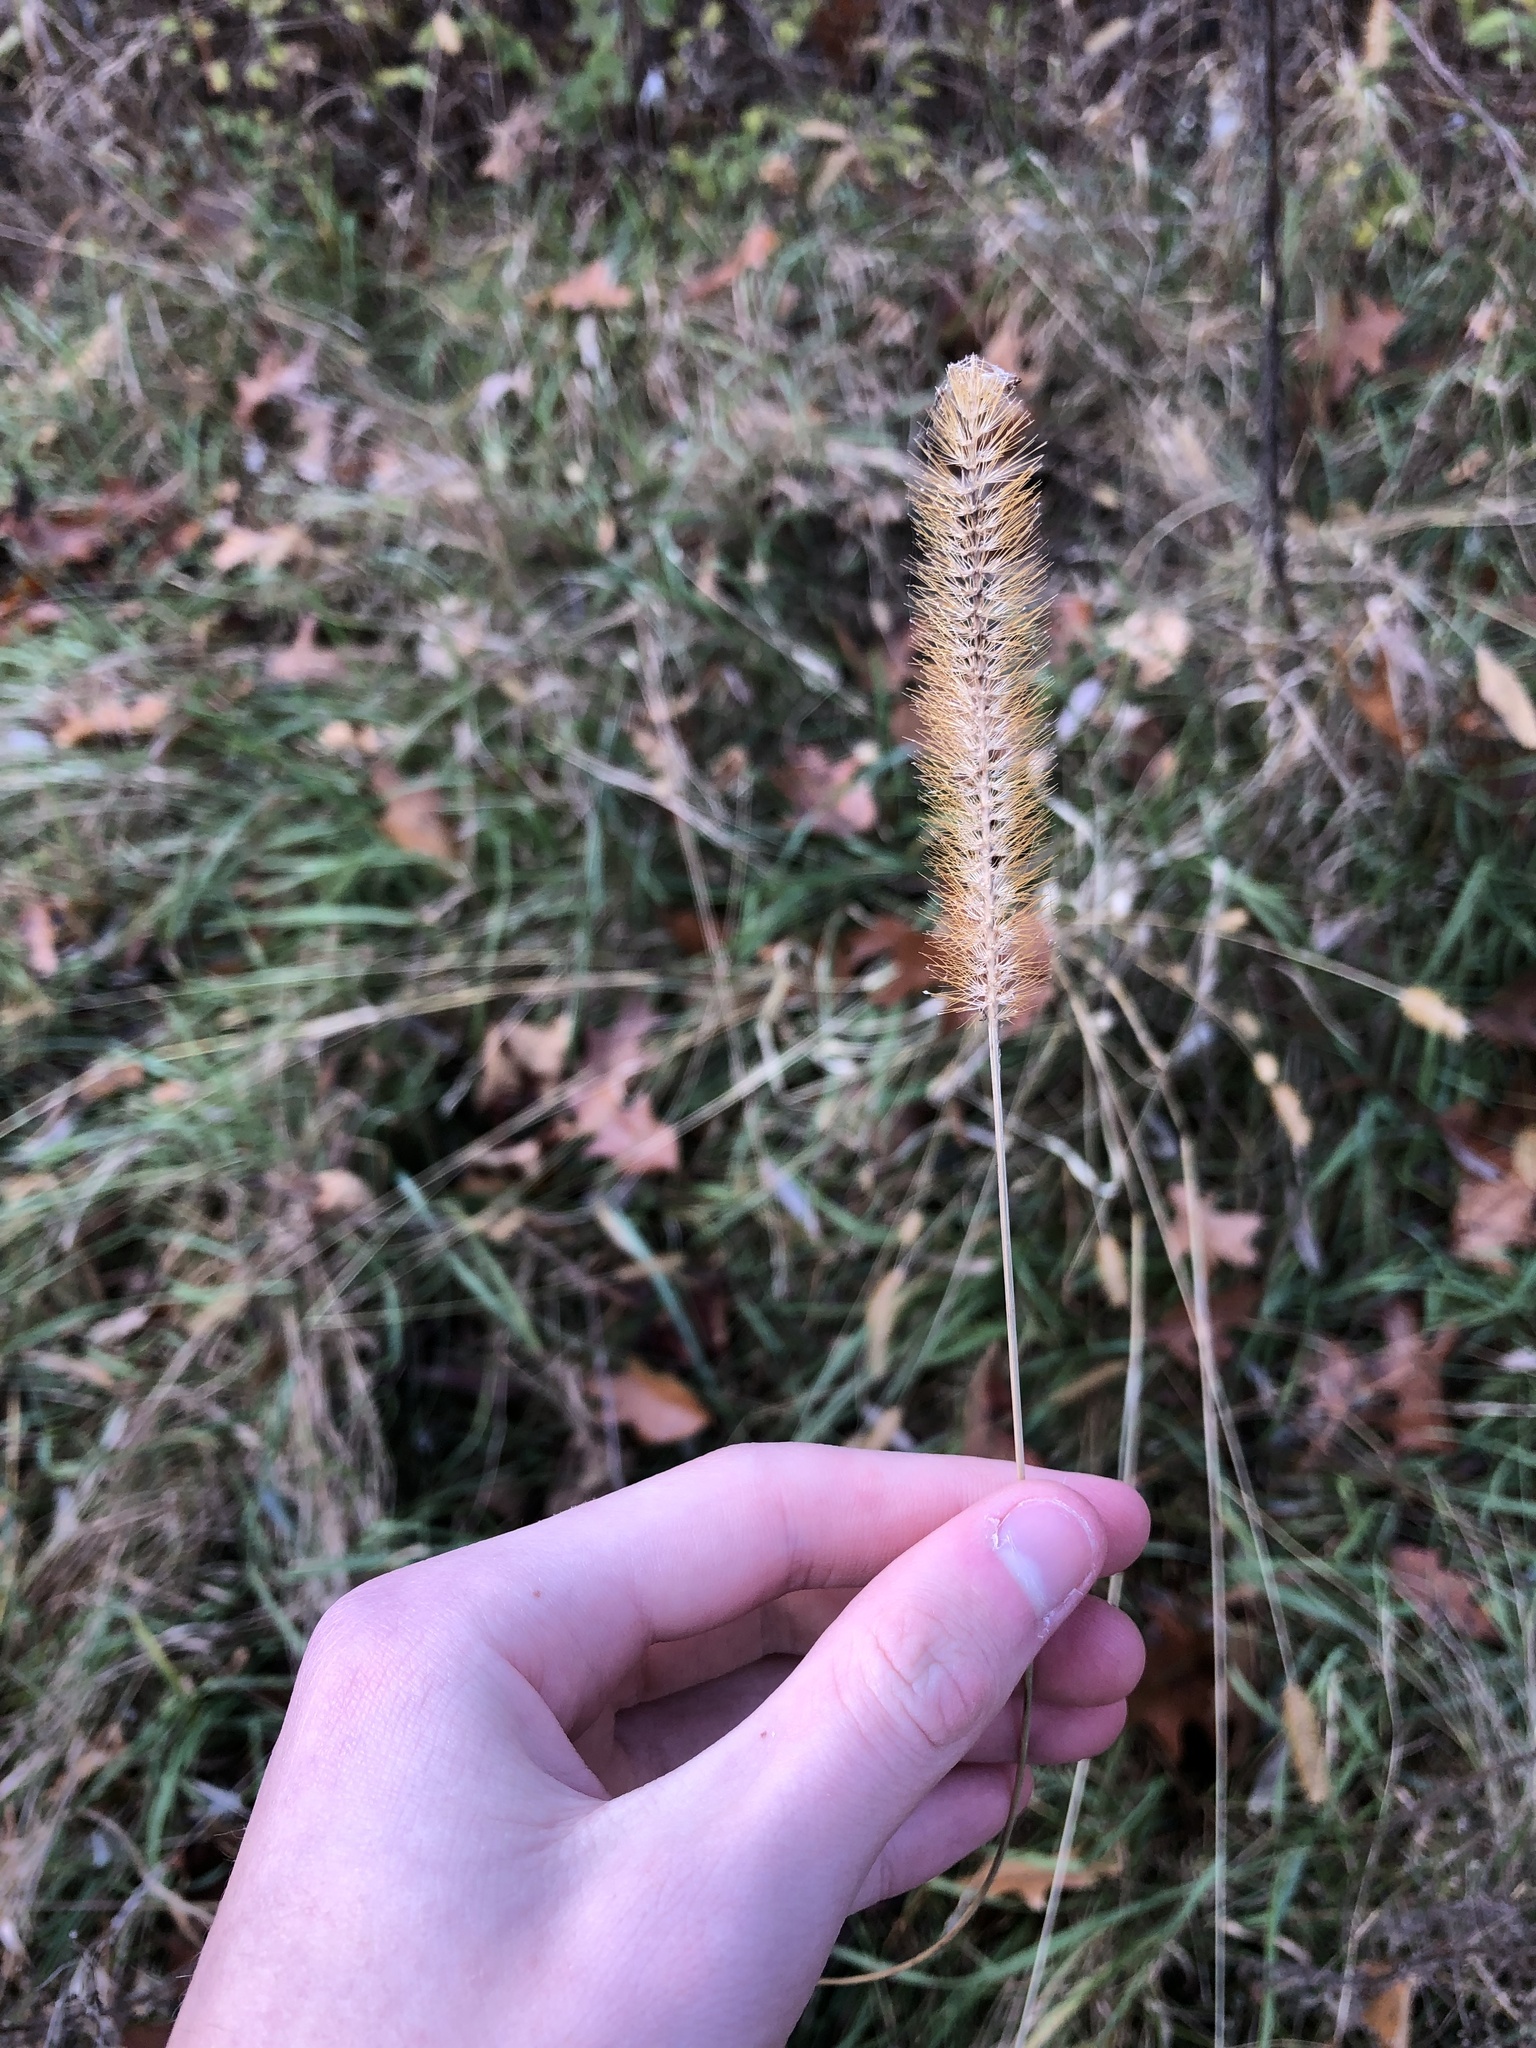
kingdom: Plantae
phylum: Tracheophyta
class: Liliopsida
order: Poales
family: Poaceae
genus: Setaria
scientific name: Setaria pumila
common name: Yellow bristle-grass
